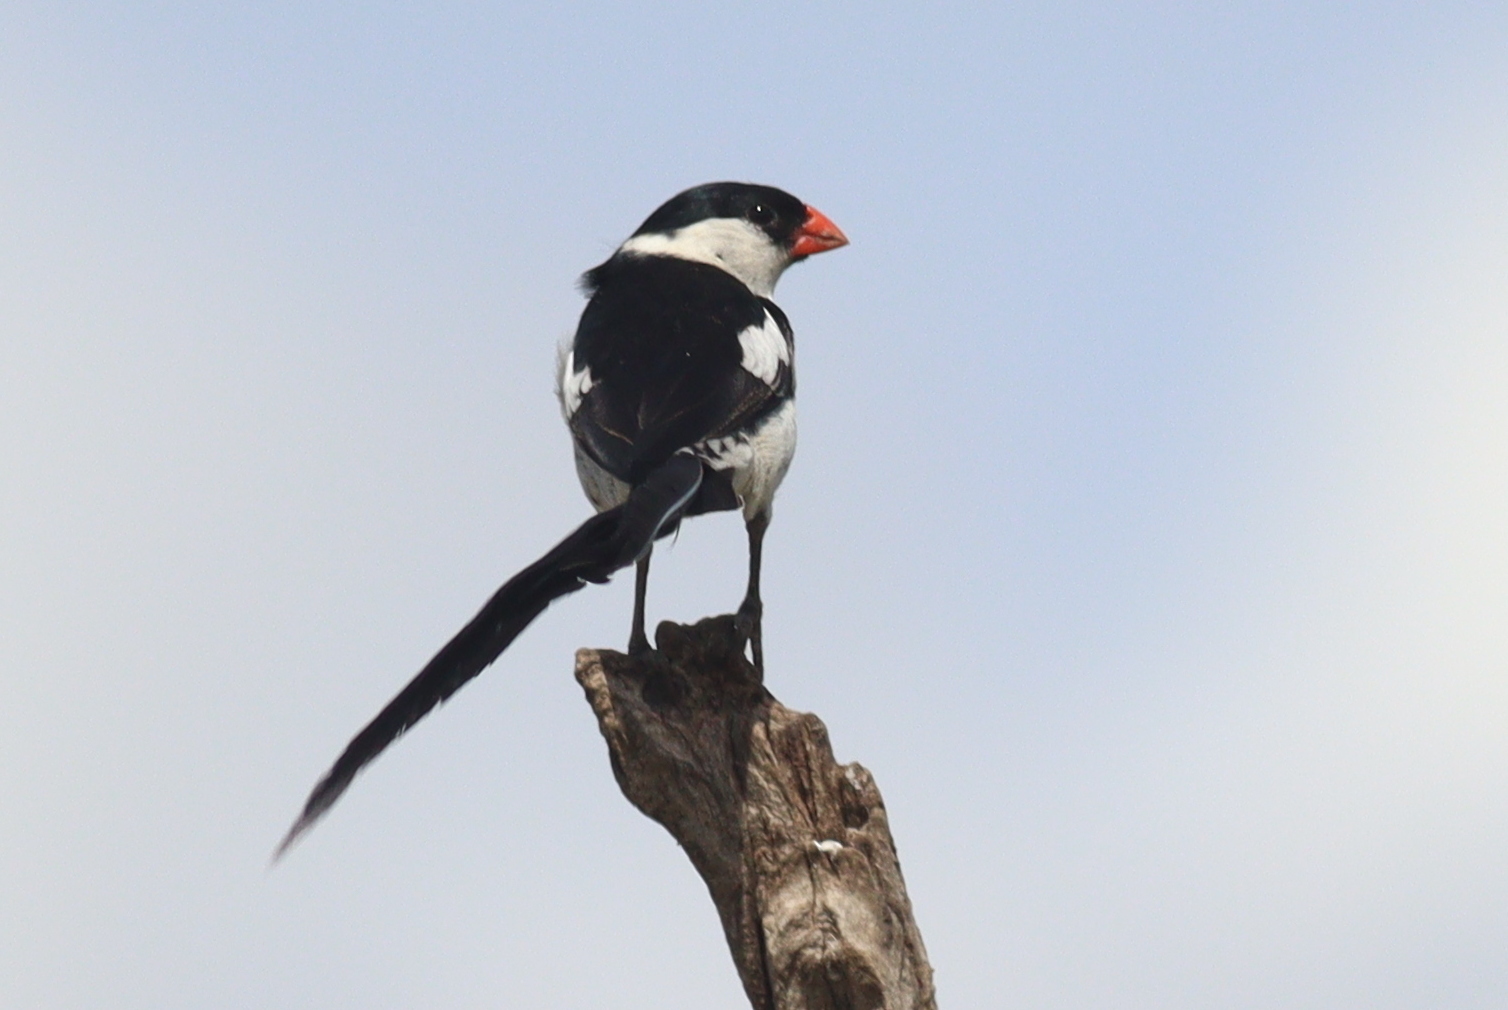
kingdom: Animalia
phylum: Chordata
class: Aves
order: Passeriformes
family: Viduidae
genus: Vidua
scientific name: Vidua macroura
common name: Pin-tailed whydah
